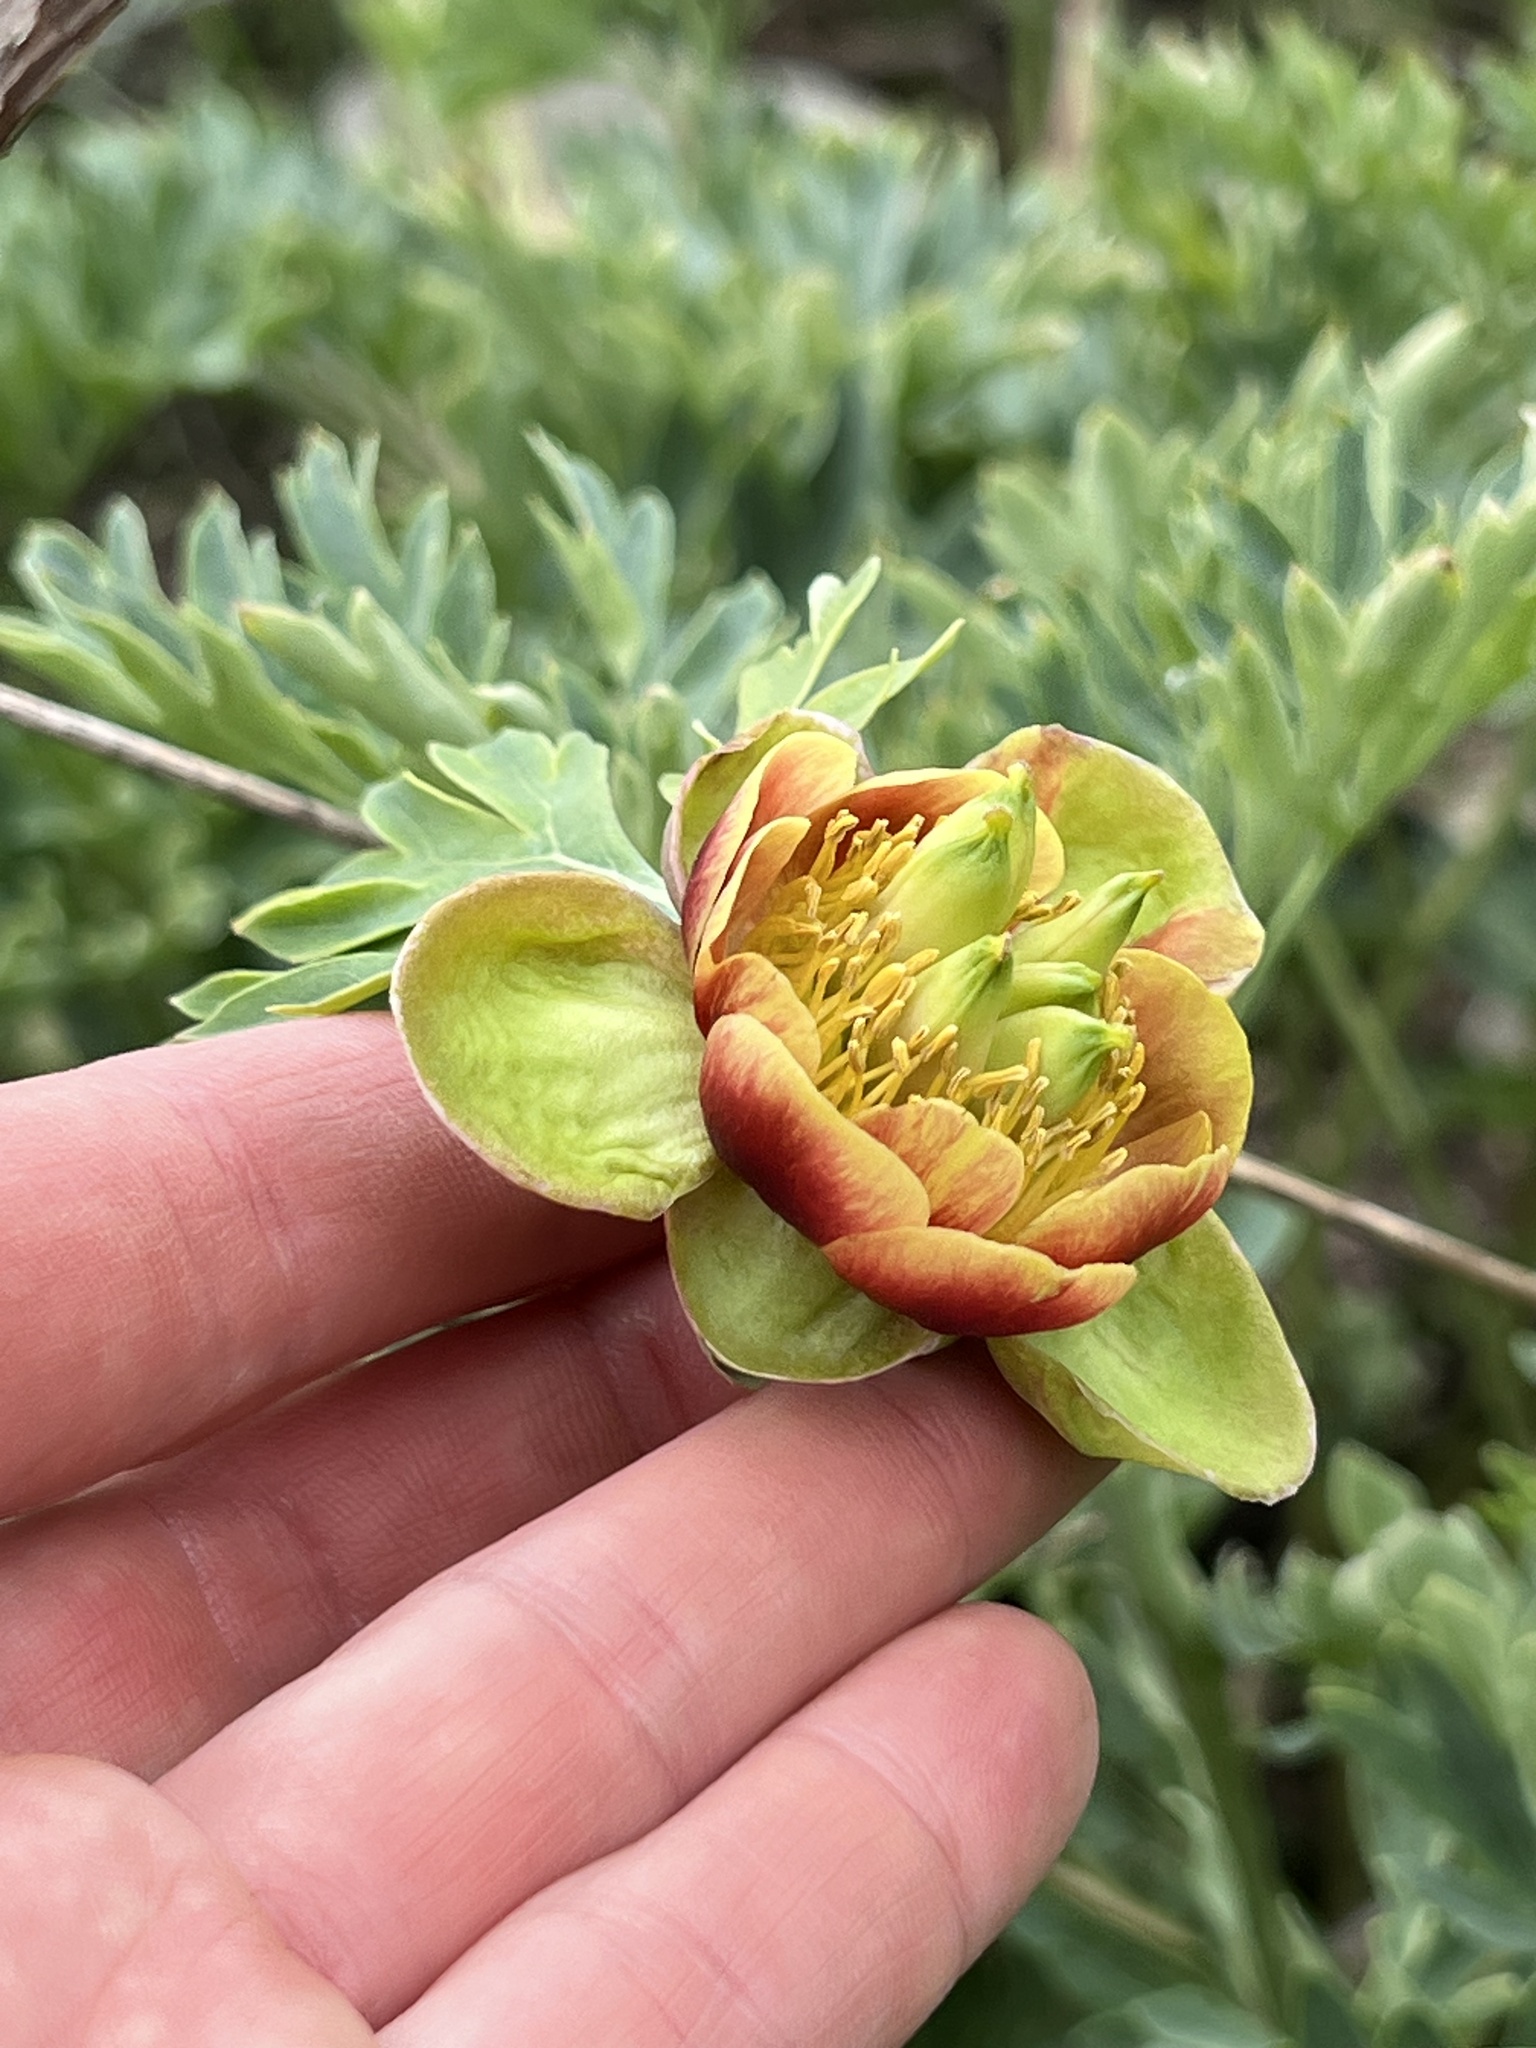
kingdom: Plantae
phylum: Tracheophyta
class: Magnoliopsida
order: Saxifragales
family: Paeoniaceae
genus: Paeonia
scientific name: Paeonia brownii
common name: Brown's peony
